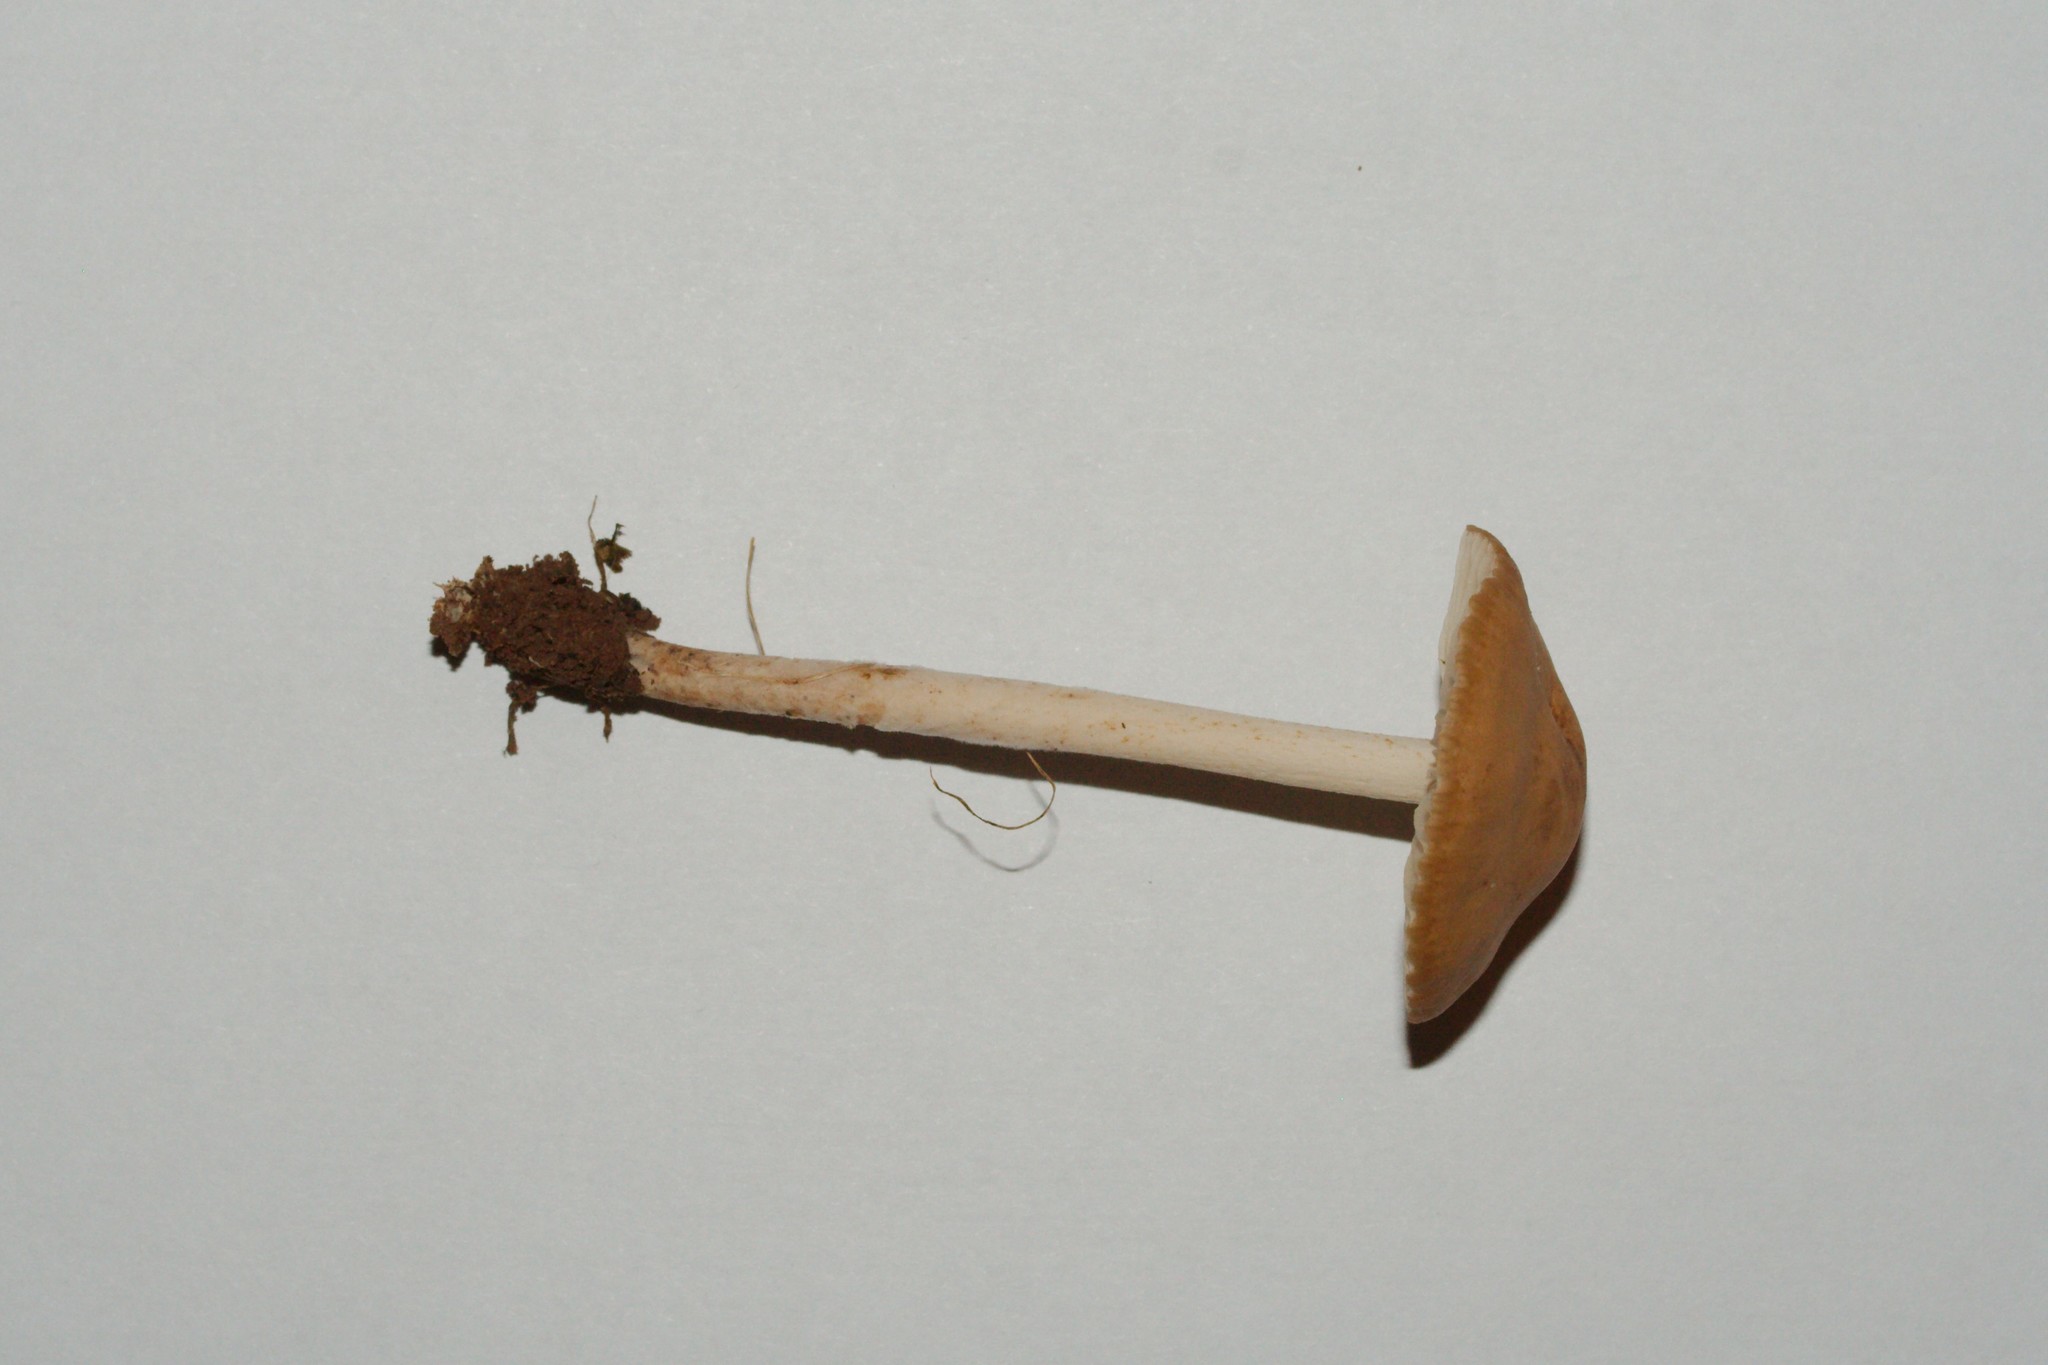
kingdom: Fungi
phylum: Basidiomycota
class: Agaricomycetes
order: Agaricales
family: Marasmiaceae
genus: Marasmius
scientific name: Marasmius oreades
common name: Fairy ring champignon
